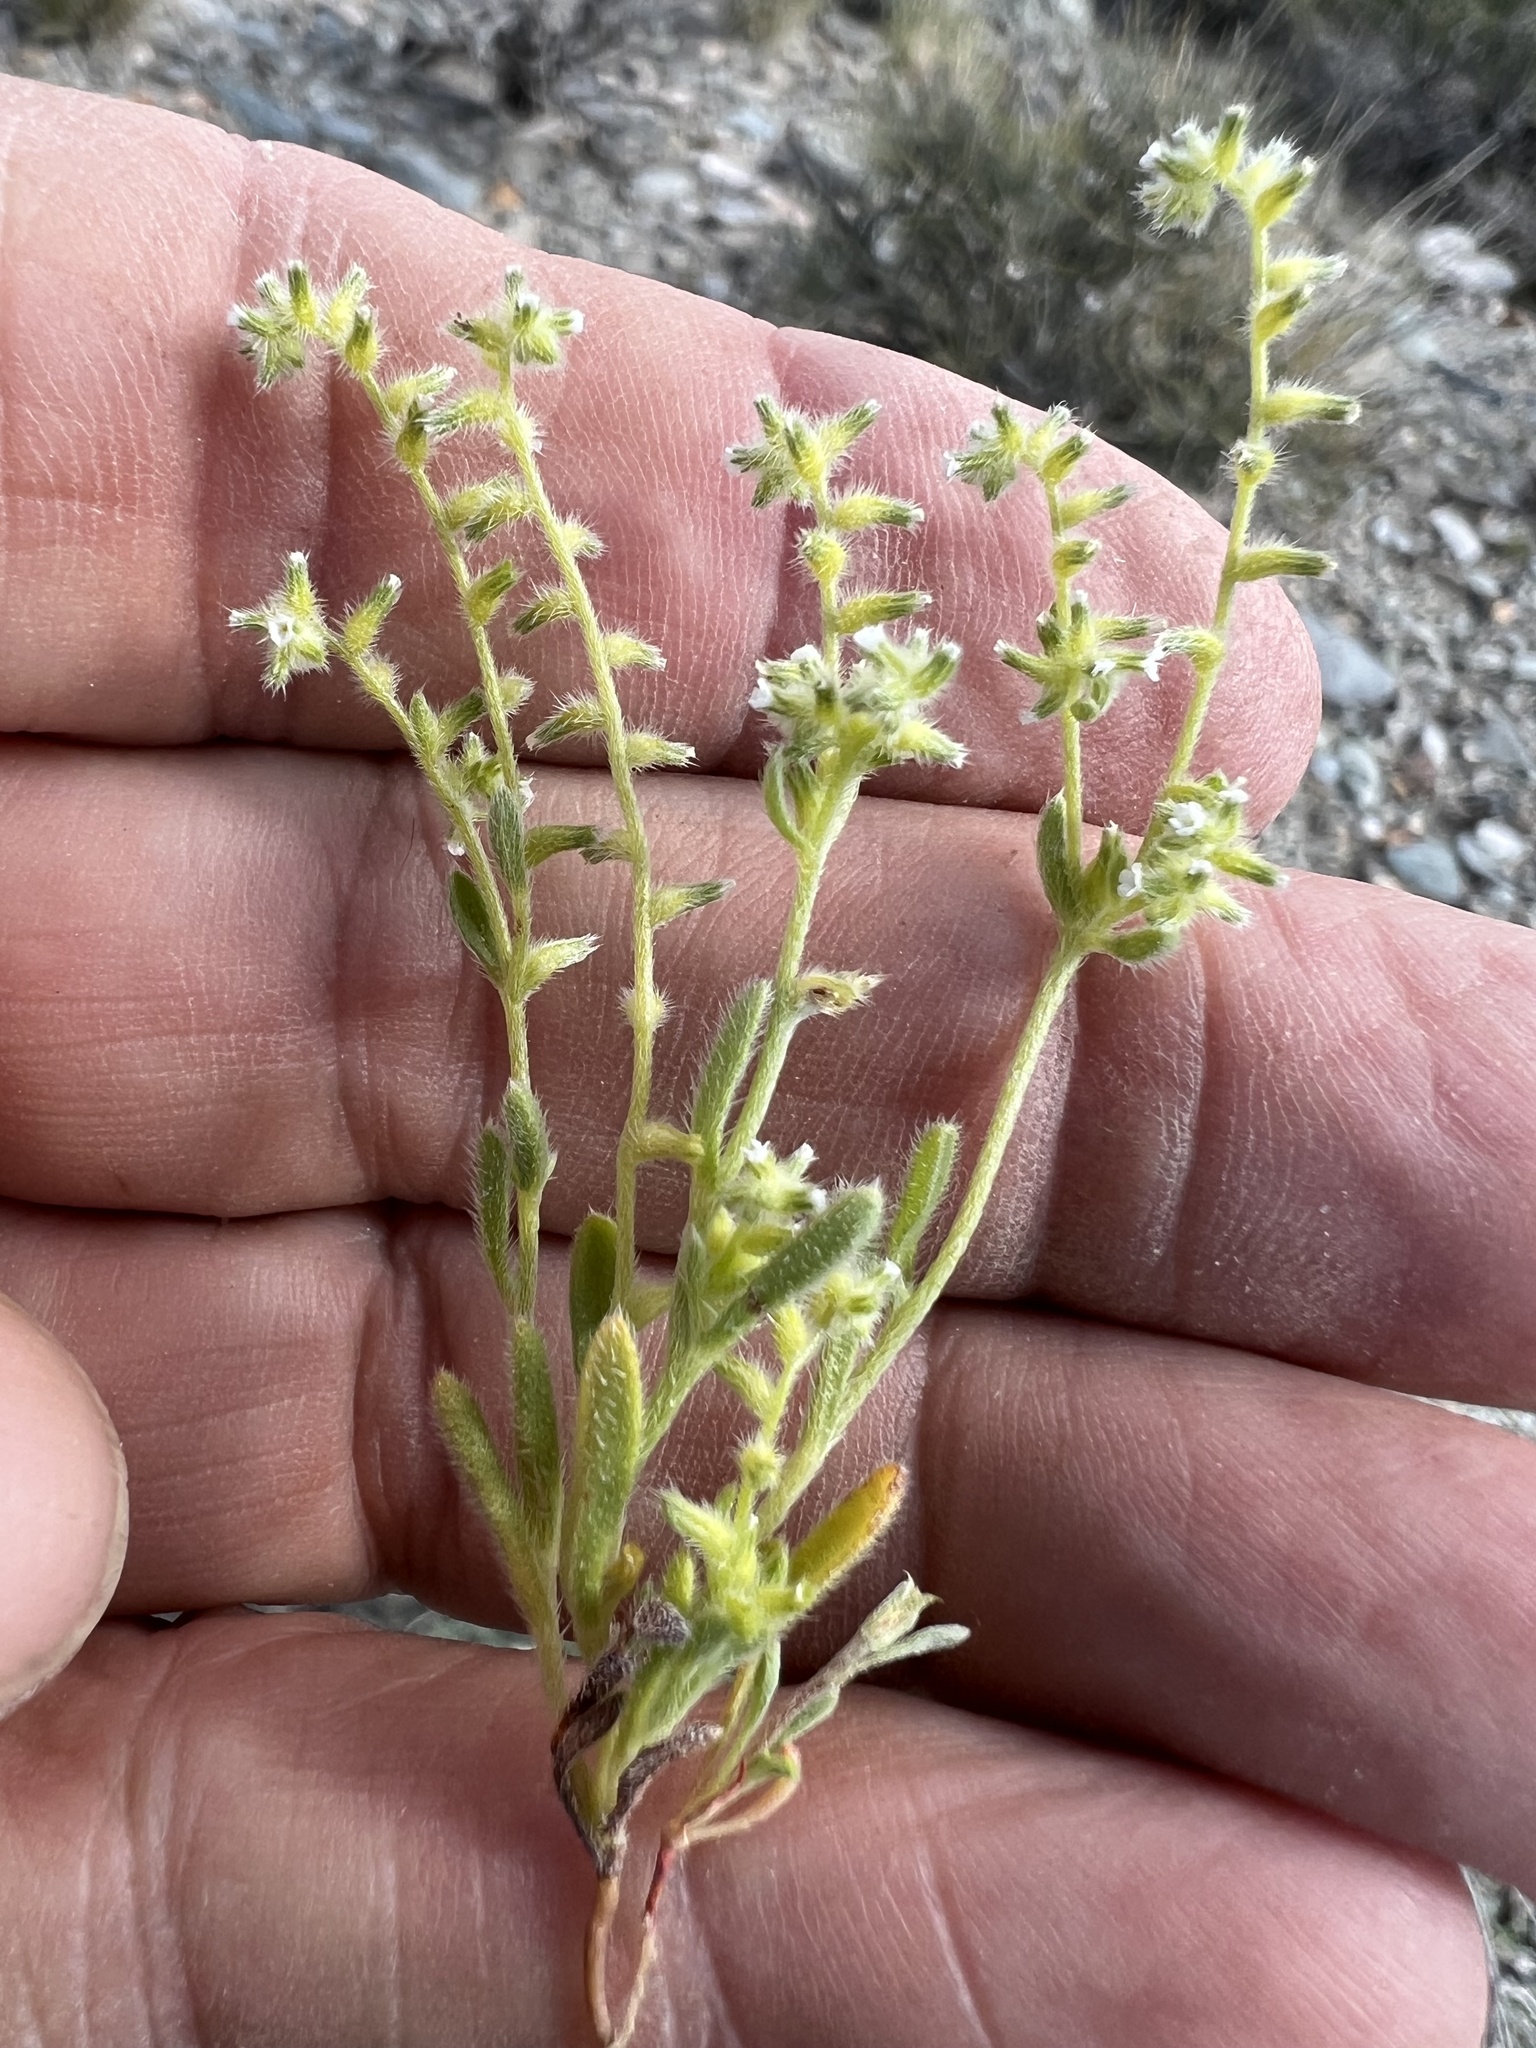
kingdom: Plantae
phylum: Tracheophyta
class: Magnoliopsida
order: Boraginales
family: Boraginaceae
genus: Cryptantha
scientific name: Cryptantha recurvata
